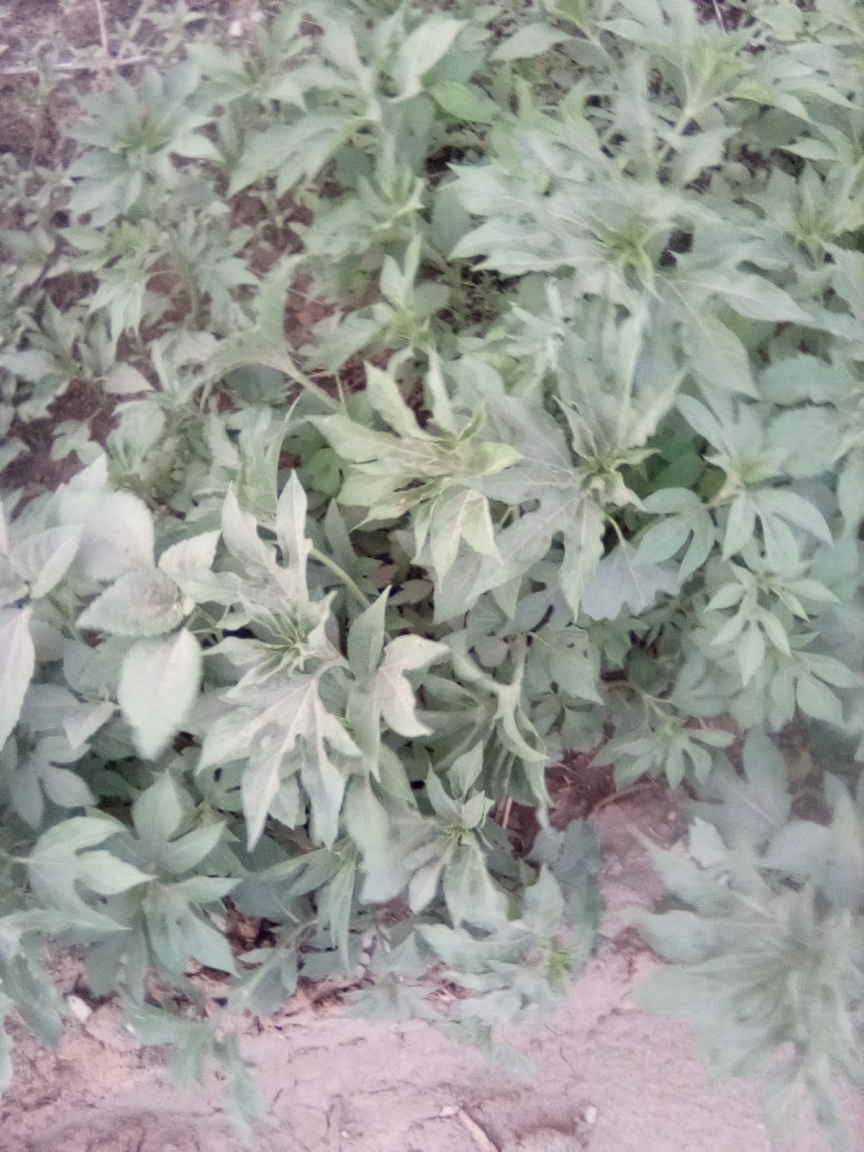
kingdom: Plantae
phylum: Tracheophyta
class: Magnoliopsida
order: Asterales
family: Asteraceae
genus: Ambrosia
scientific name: Ambrosia trifida
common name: Giant ragweed
